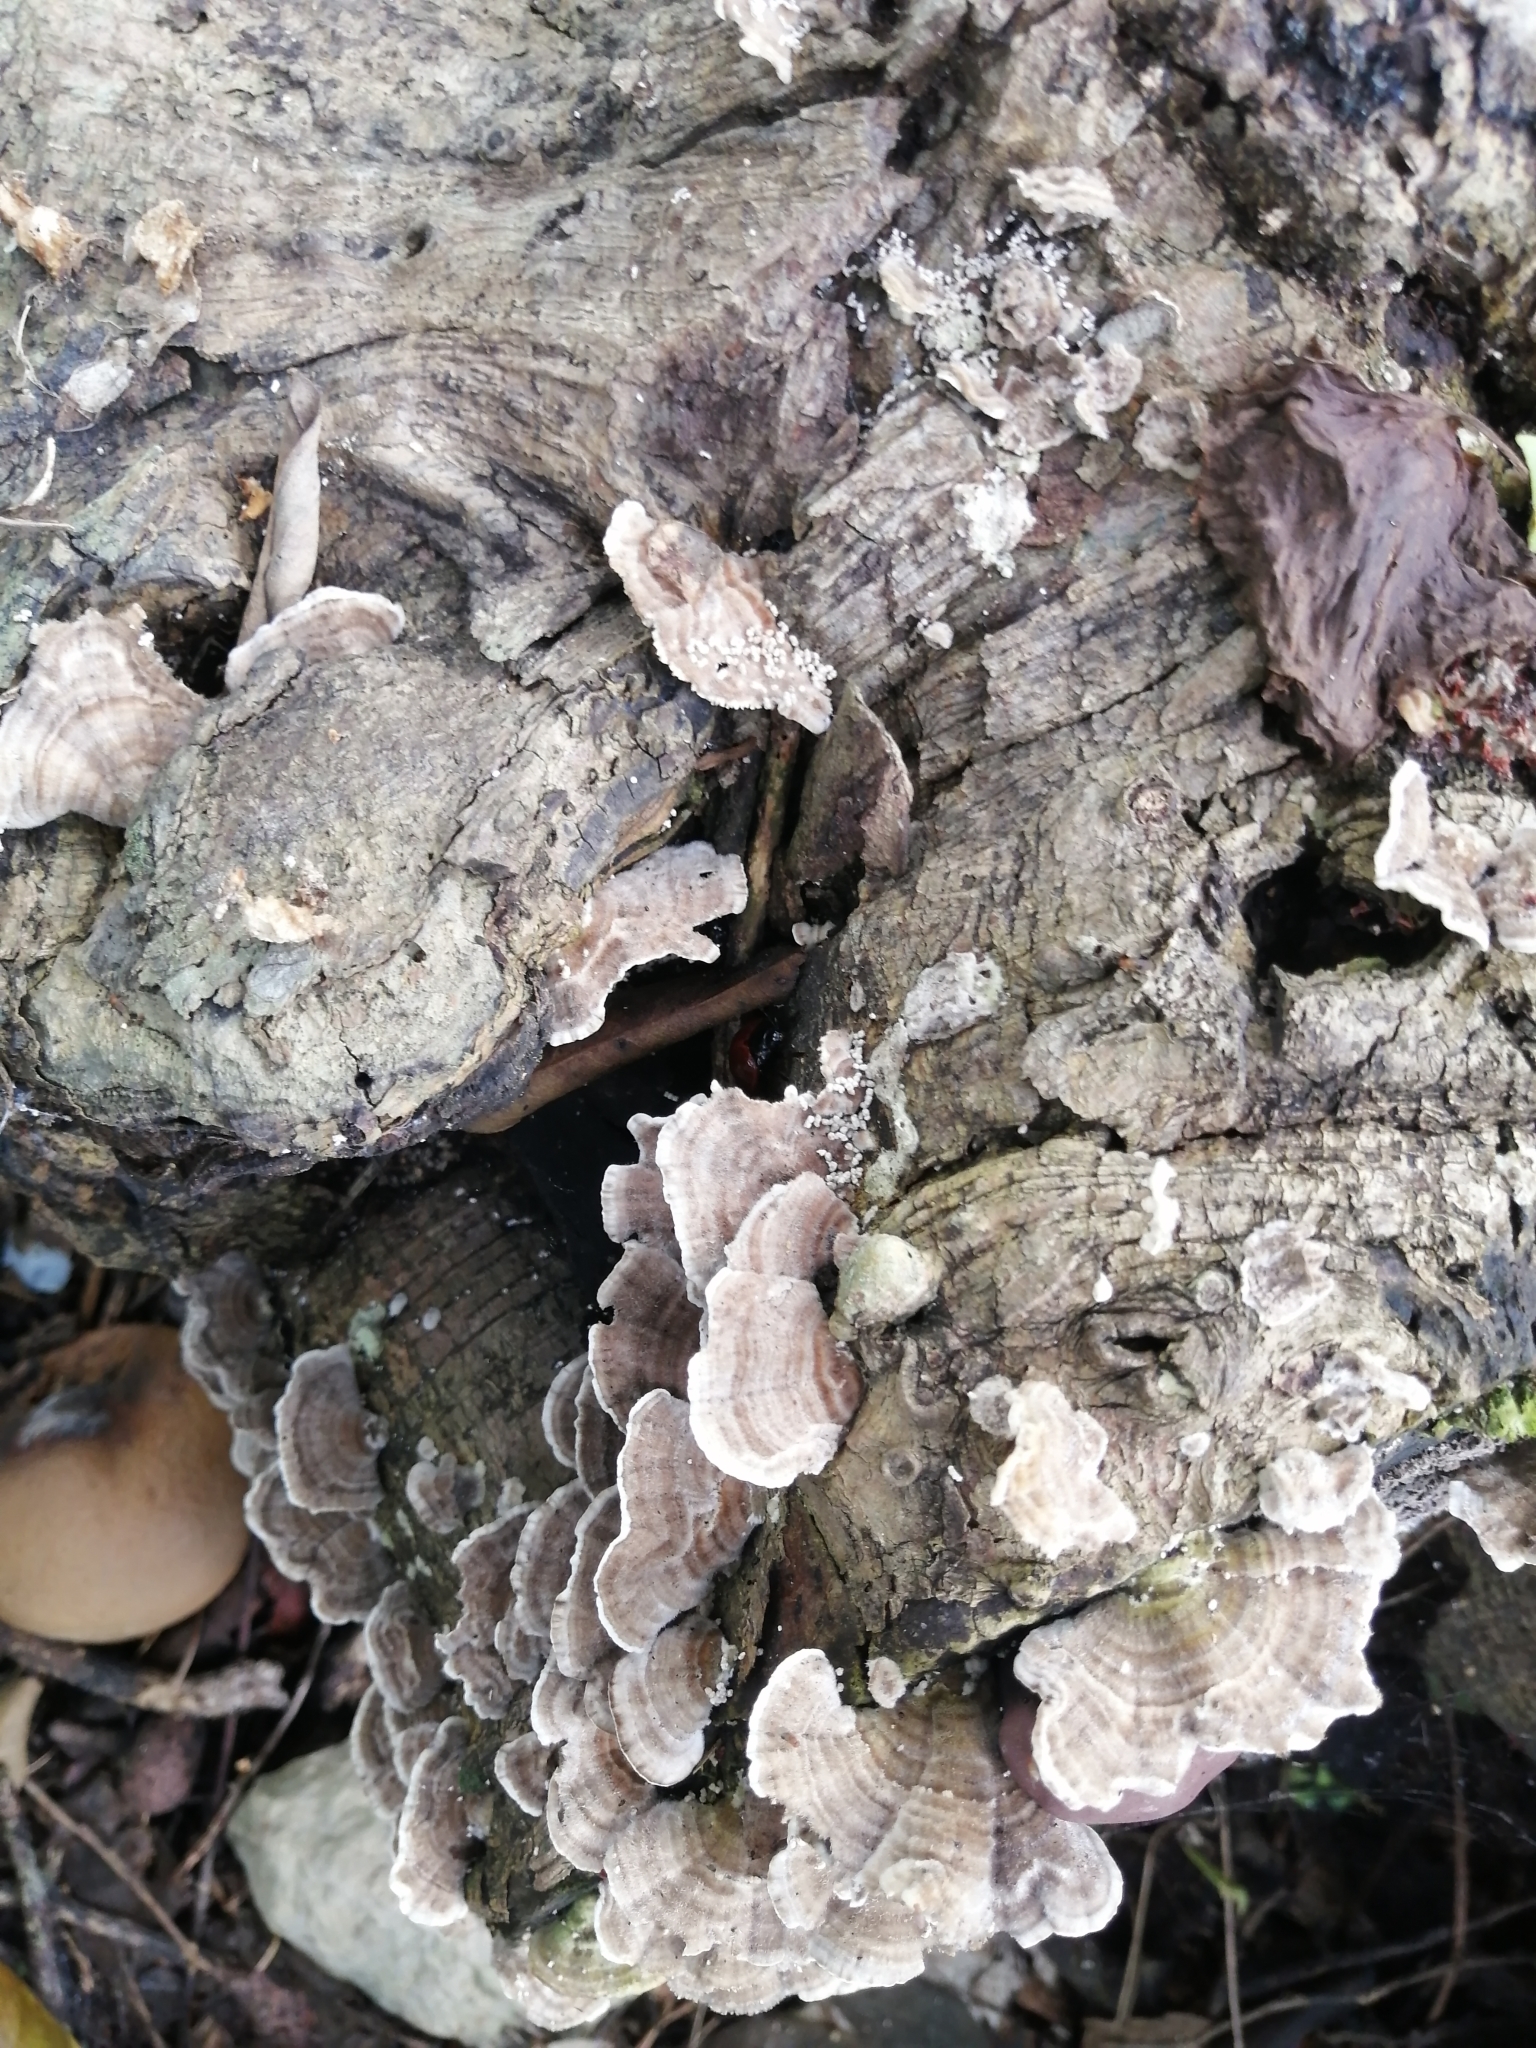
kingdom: Fungi
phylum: Basidiomycota
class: Agaricomycetes
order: Polyporales
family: Polyporaceae
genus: Trametes
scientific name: Trametes versicolor
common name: Turkeytail
